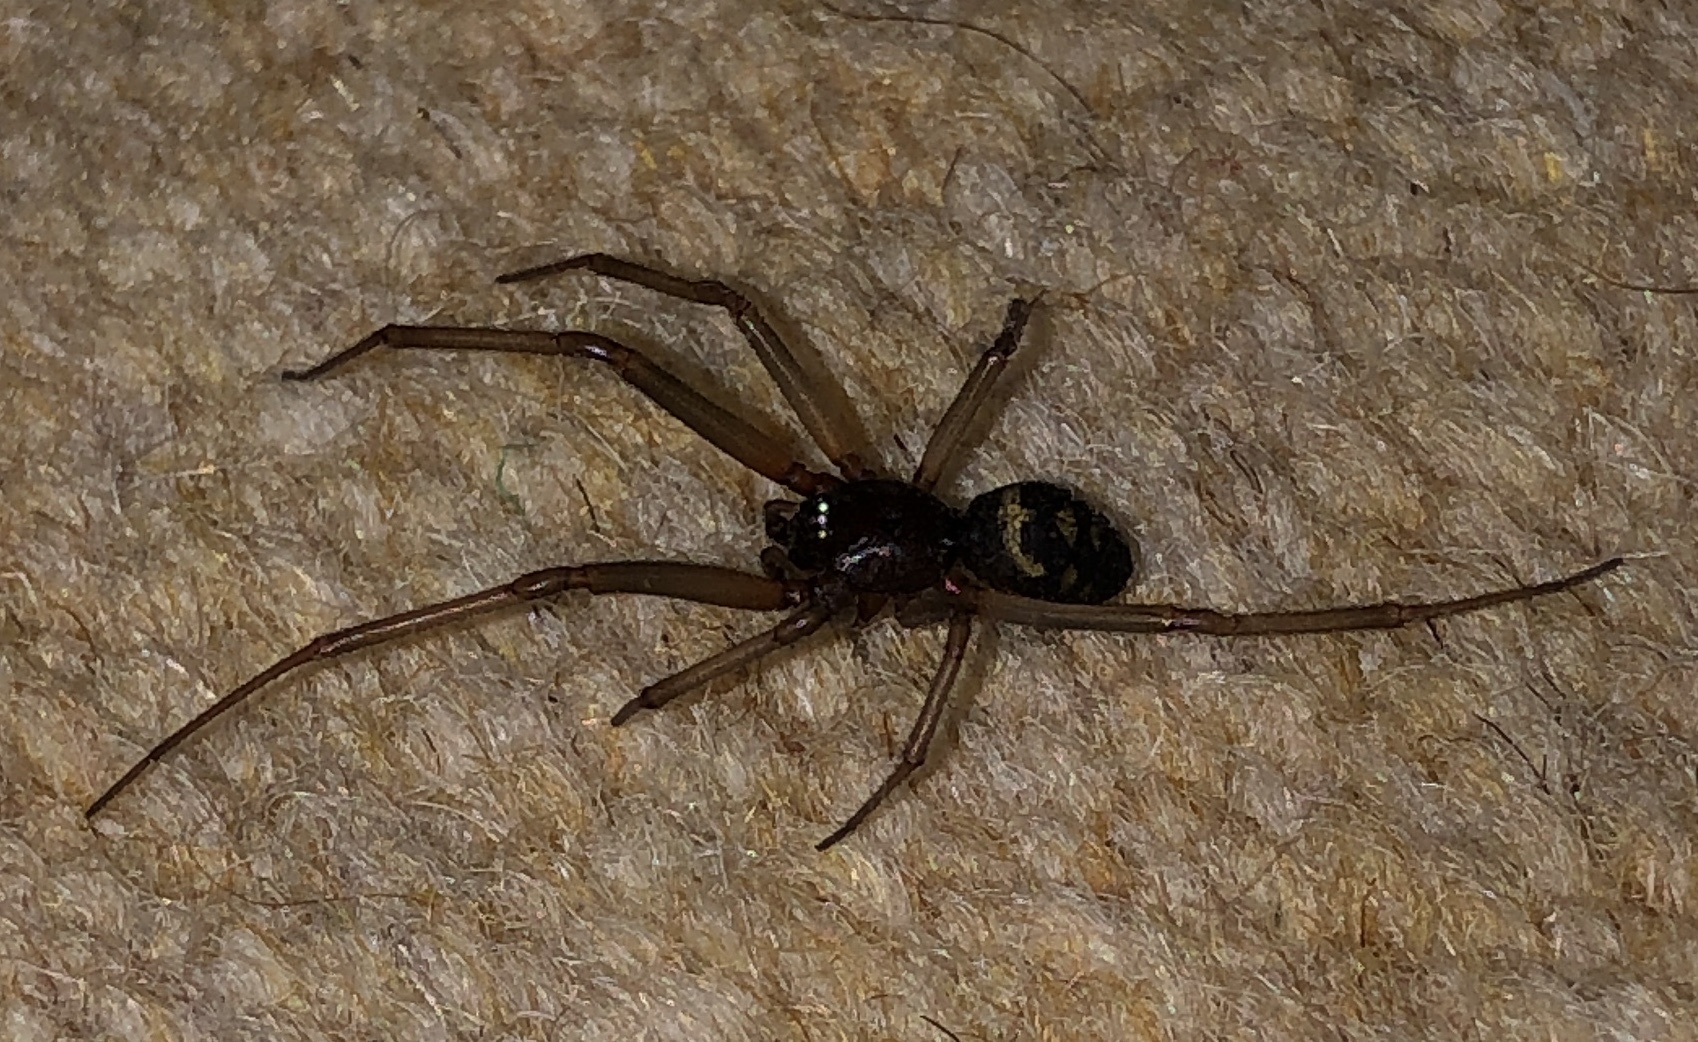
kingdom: Animalia
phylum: Arthropoda
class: Arachnida
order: Araneae
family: Theridiidae
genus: Steatoda
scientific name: Steatoda grossa
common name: False black widow
